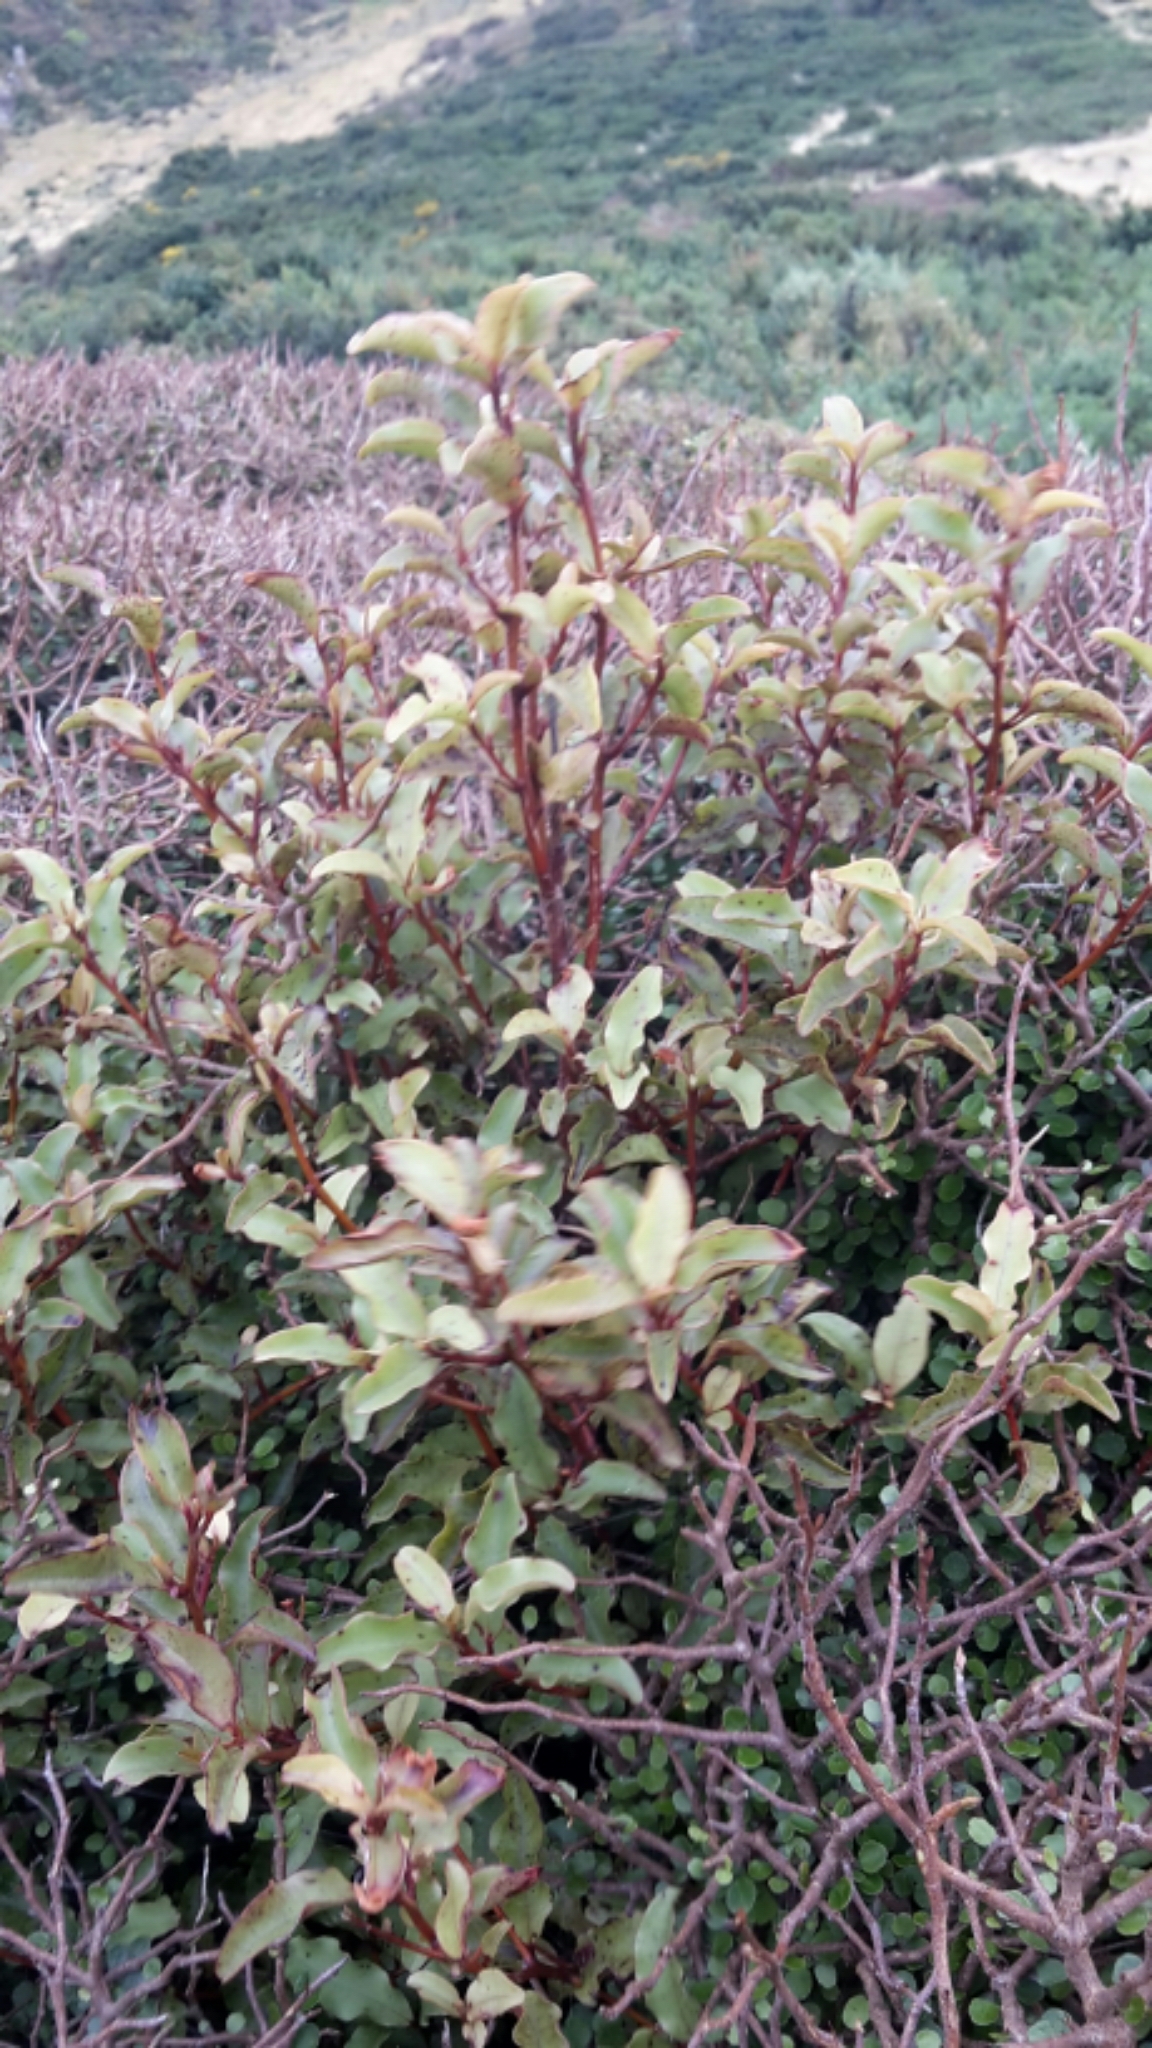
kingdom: Plantae
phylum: Tracheophyta
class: Magnoliopsida
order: Ericales
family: Primulaceae
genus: Myrsine
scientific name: Myrsine australis
